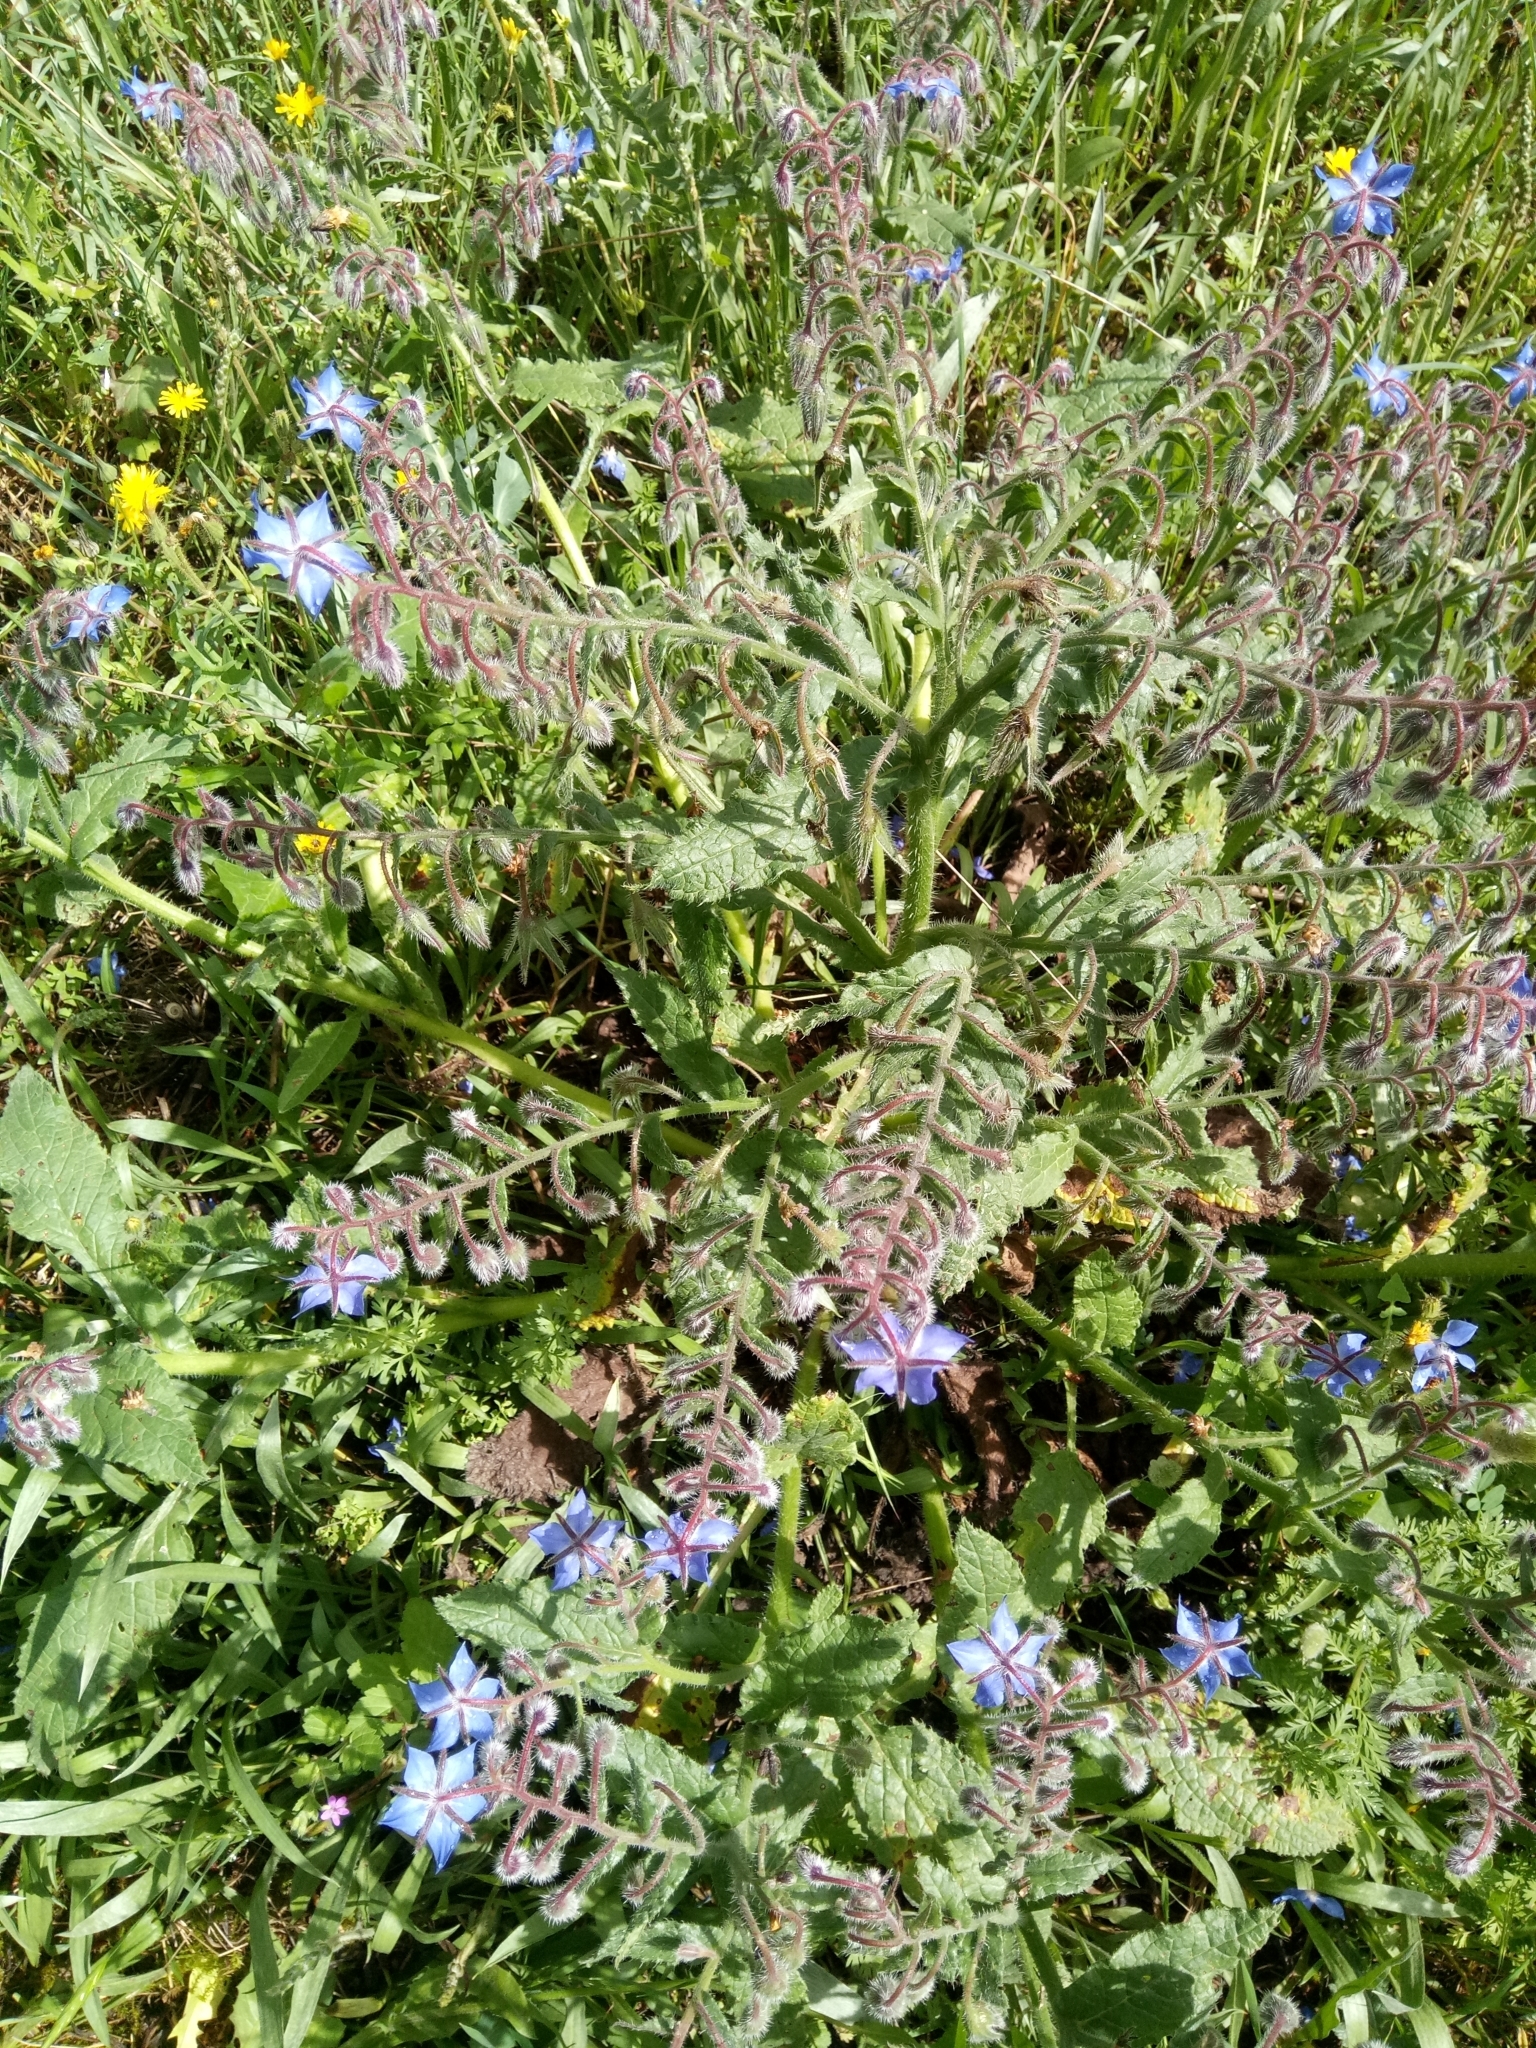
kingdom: Plantae
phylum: Tracheophyta
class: Magnoliopsida
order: Boraginales
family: Boraginaceae
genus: Borago
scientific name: Borago officinalis
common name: Borage
